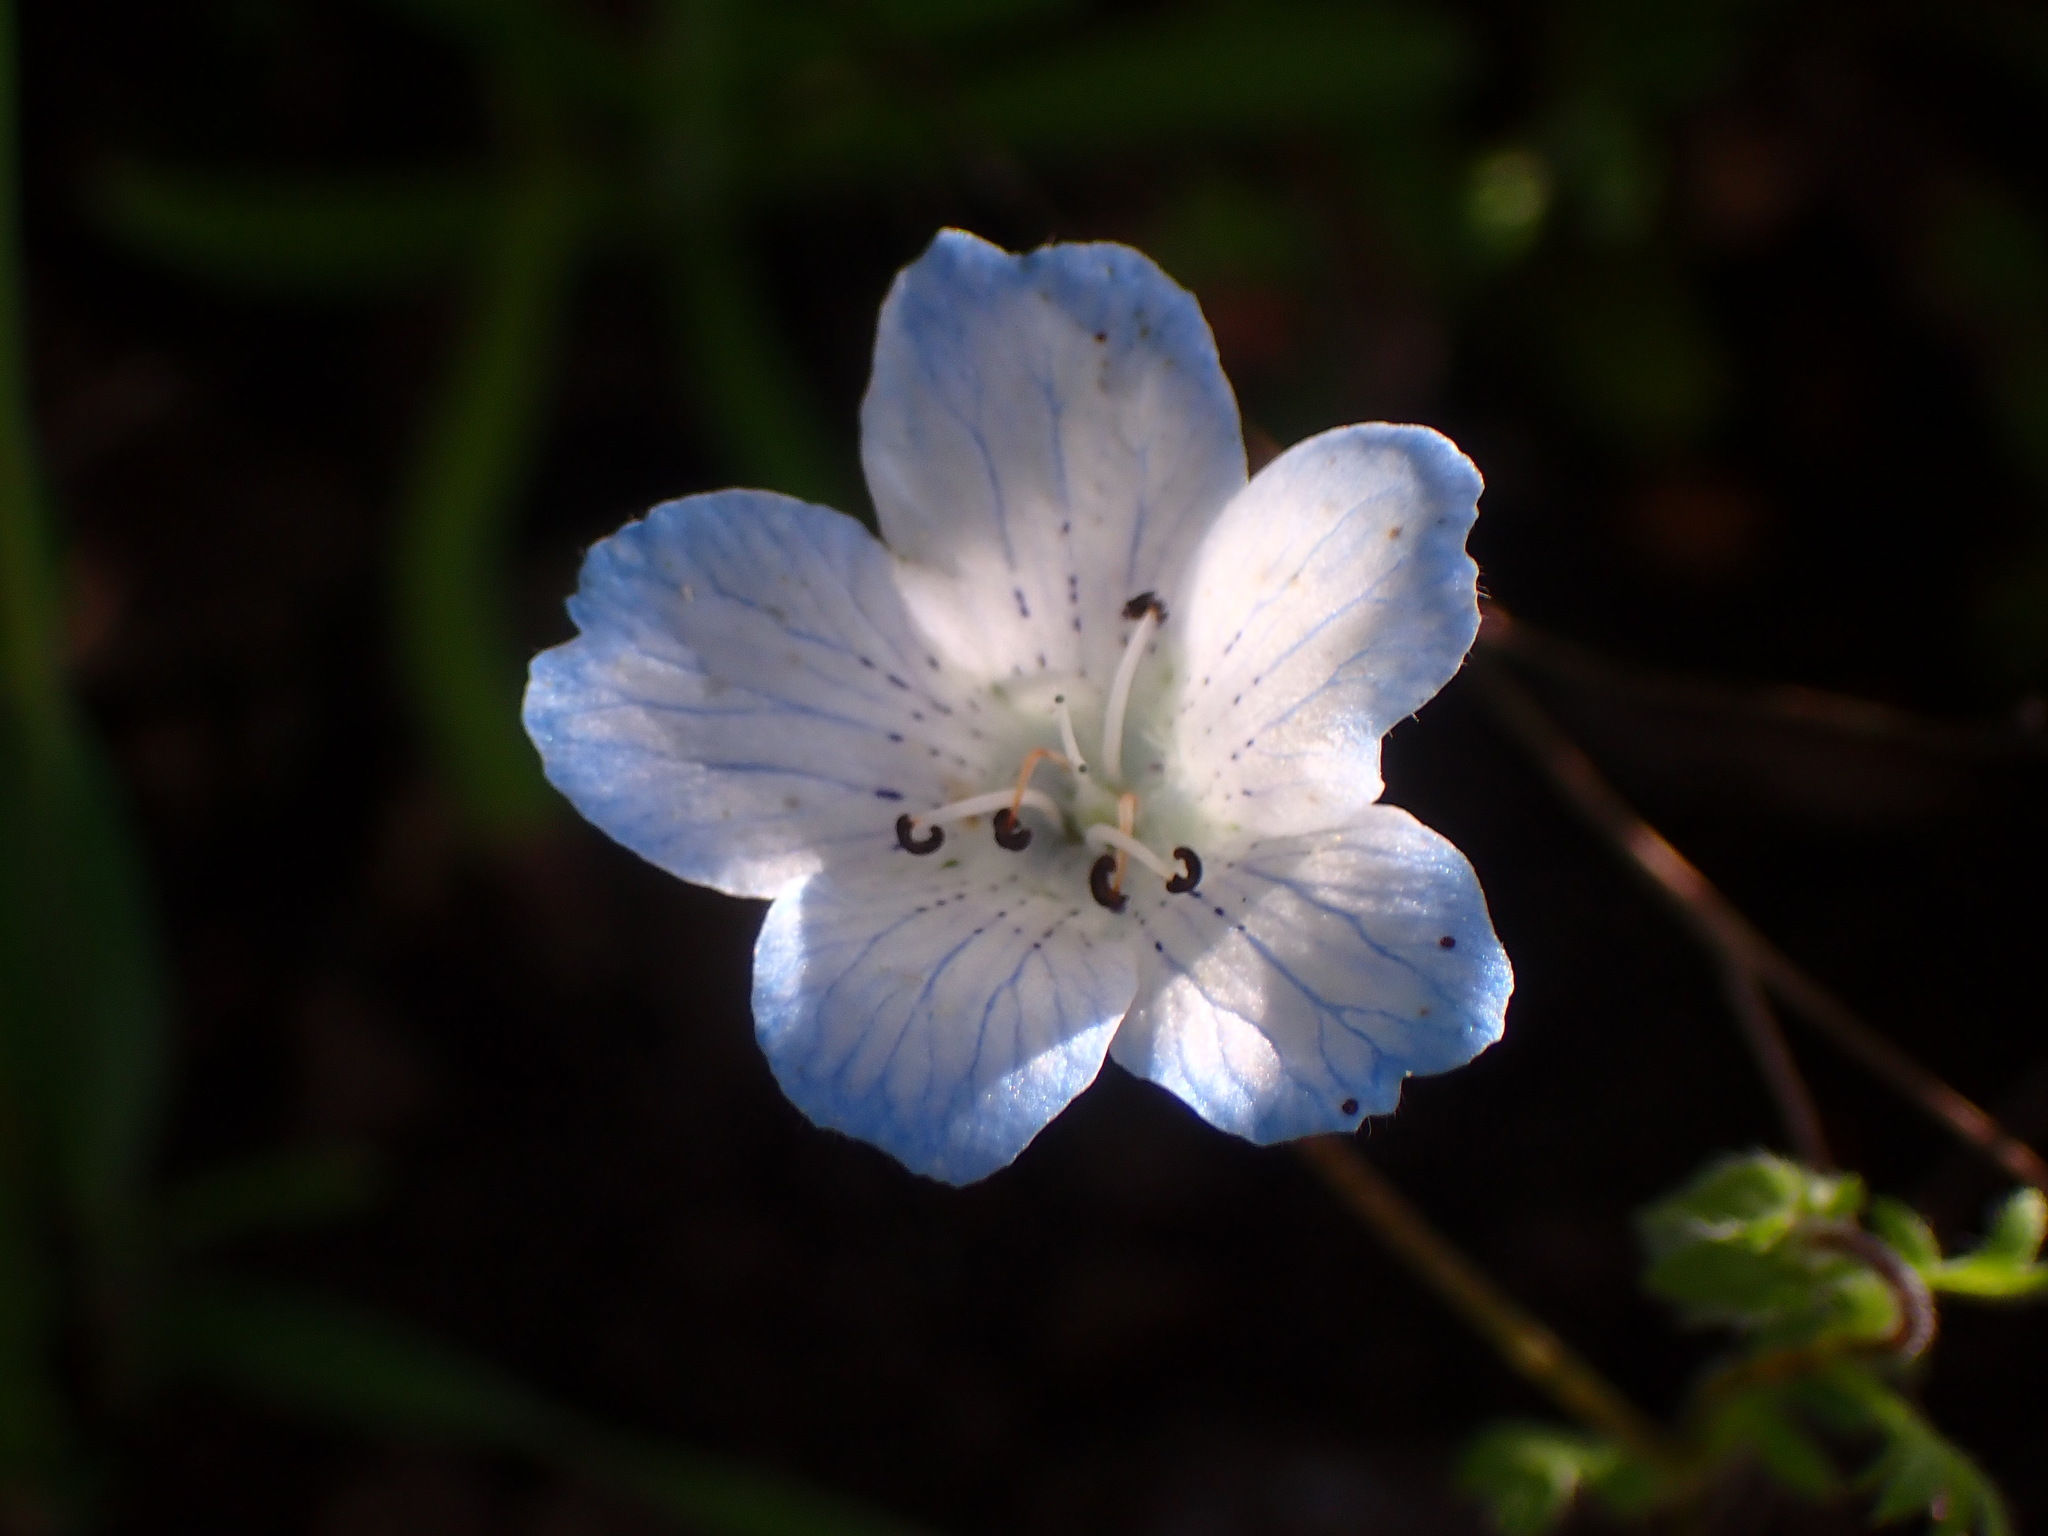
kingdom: Plantae
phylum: Tracheophyta
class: Magnoliopsida
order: Boraginales
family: Hydrophyllaceae
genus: Nemophila
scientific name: Nemophila menziesii
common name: Baby's-blue-eyes
